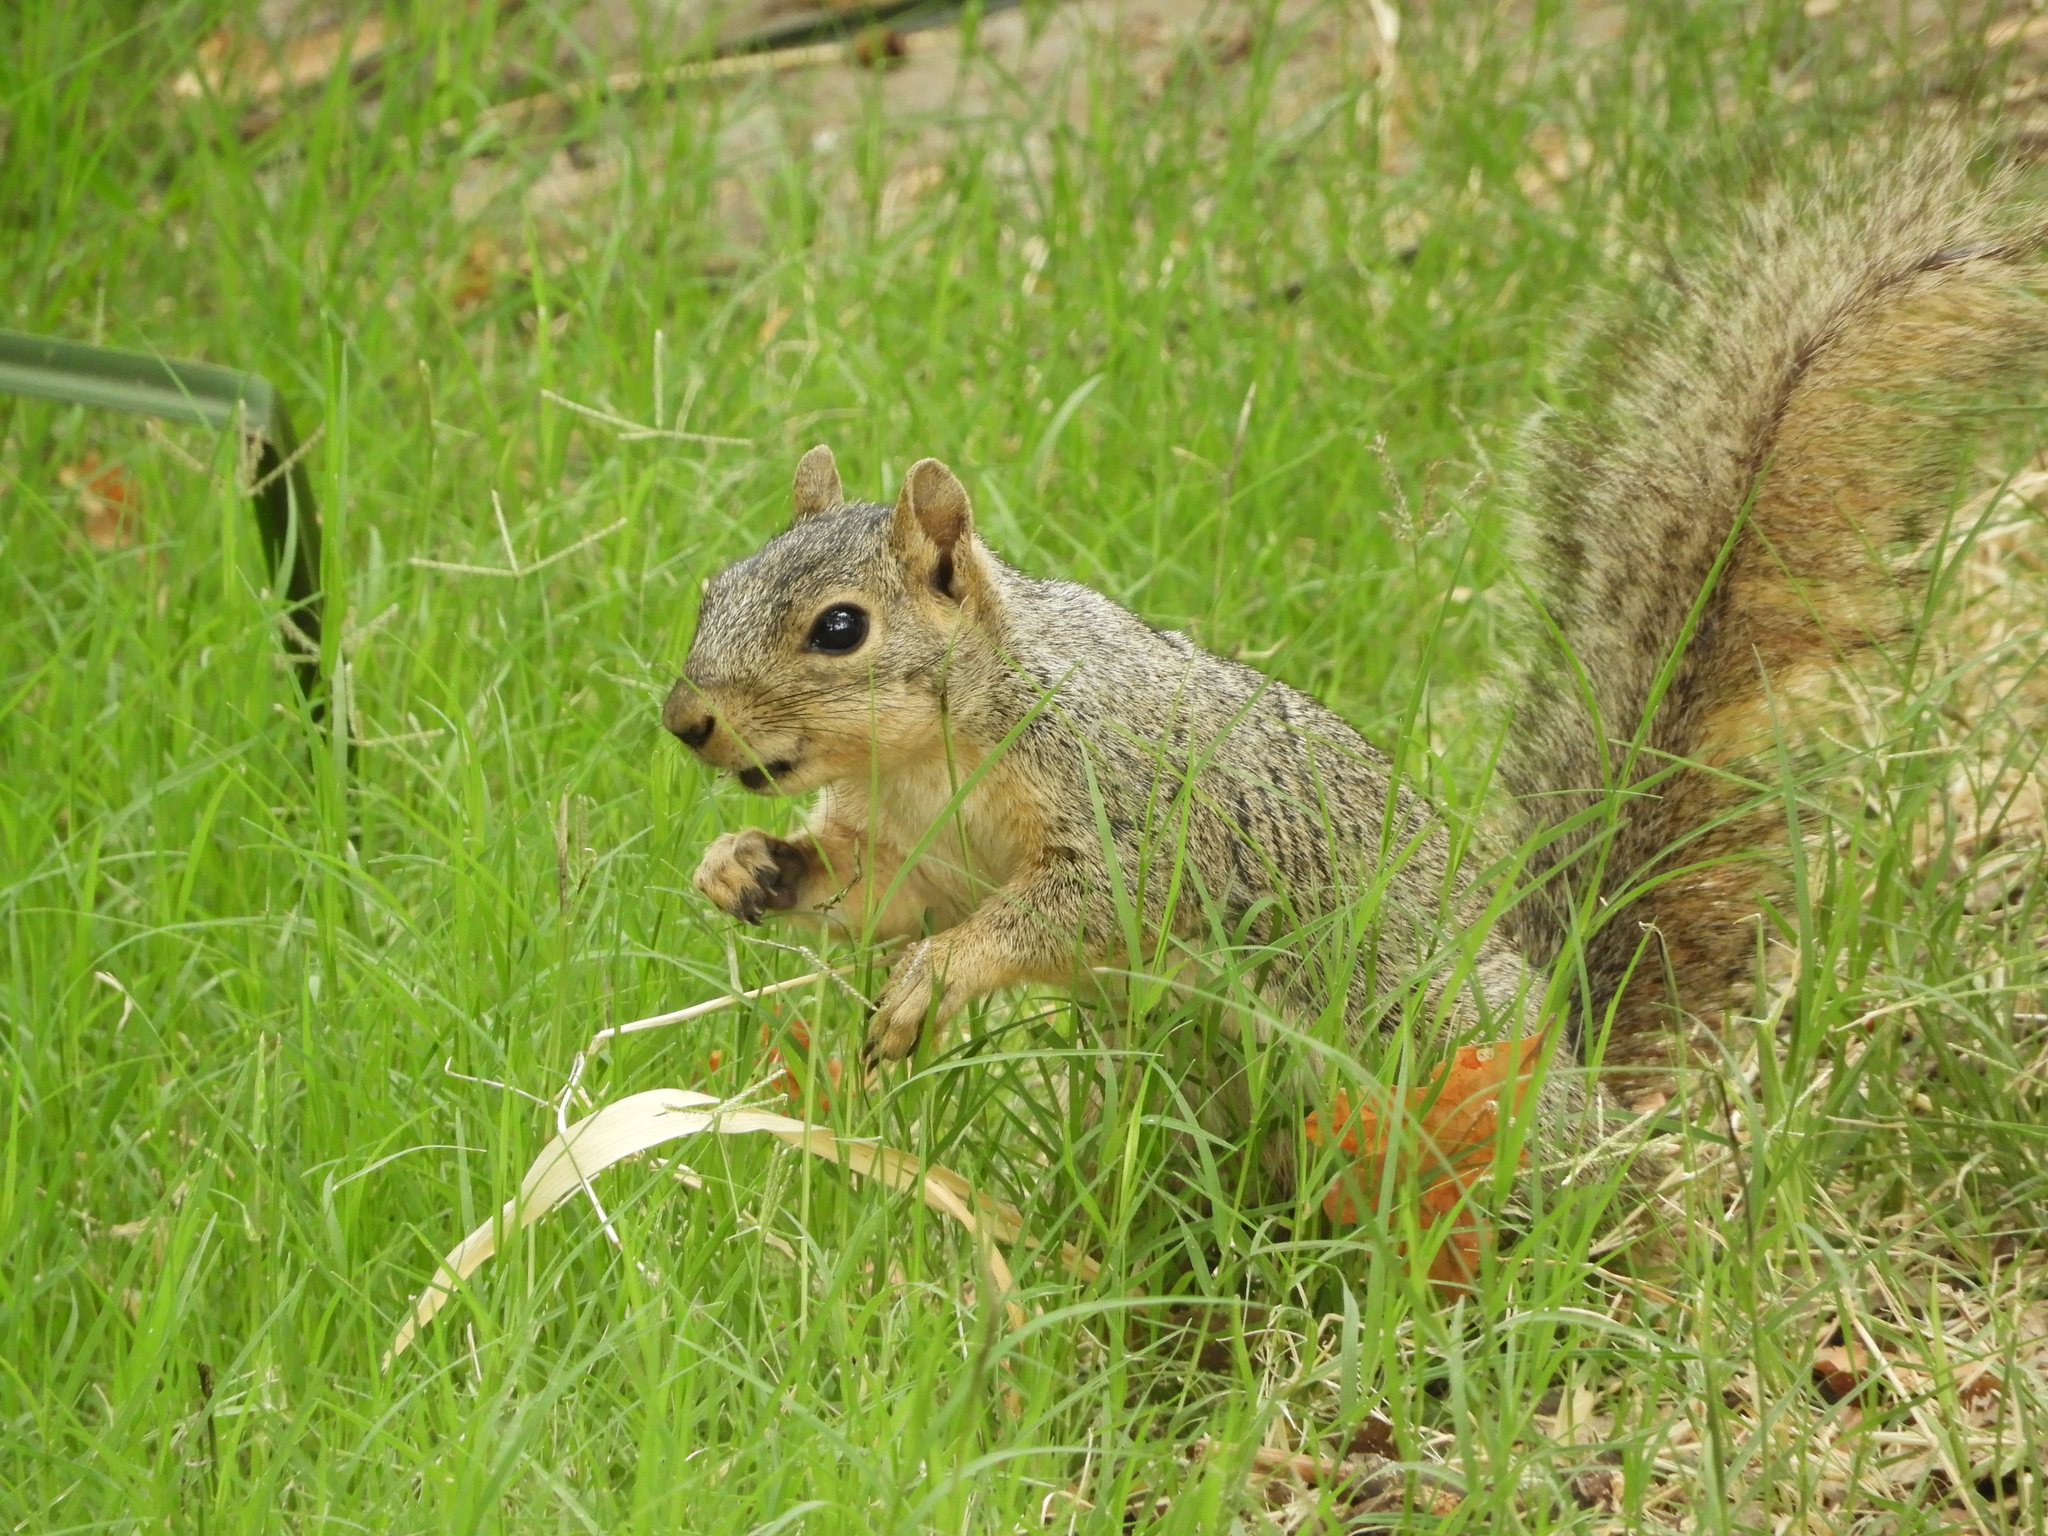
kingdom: Animalia
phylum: Chordata
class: Mammalia
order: Rodentia
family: Sciuridae
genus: Sciurus
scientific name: Sciurus niger
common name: Fox squirrel
